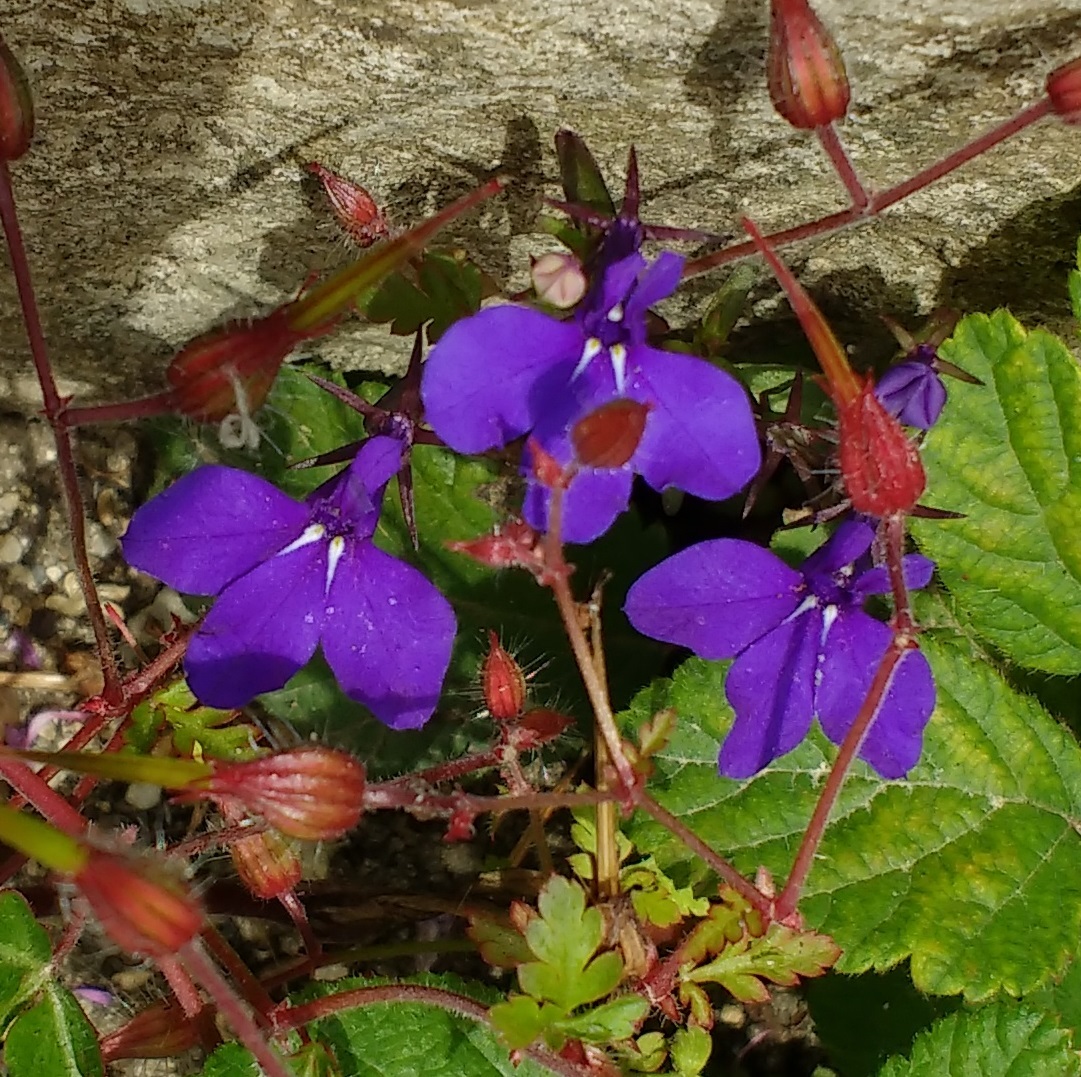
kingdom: Plantae
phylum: Tracheophyta
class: Magnoliopsida
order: Asterales
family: Campanulaceae
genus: Lobelia
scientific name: Lobelia erinus
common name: Edging lobelia
